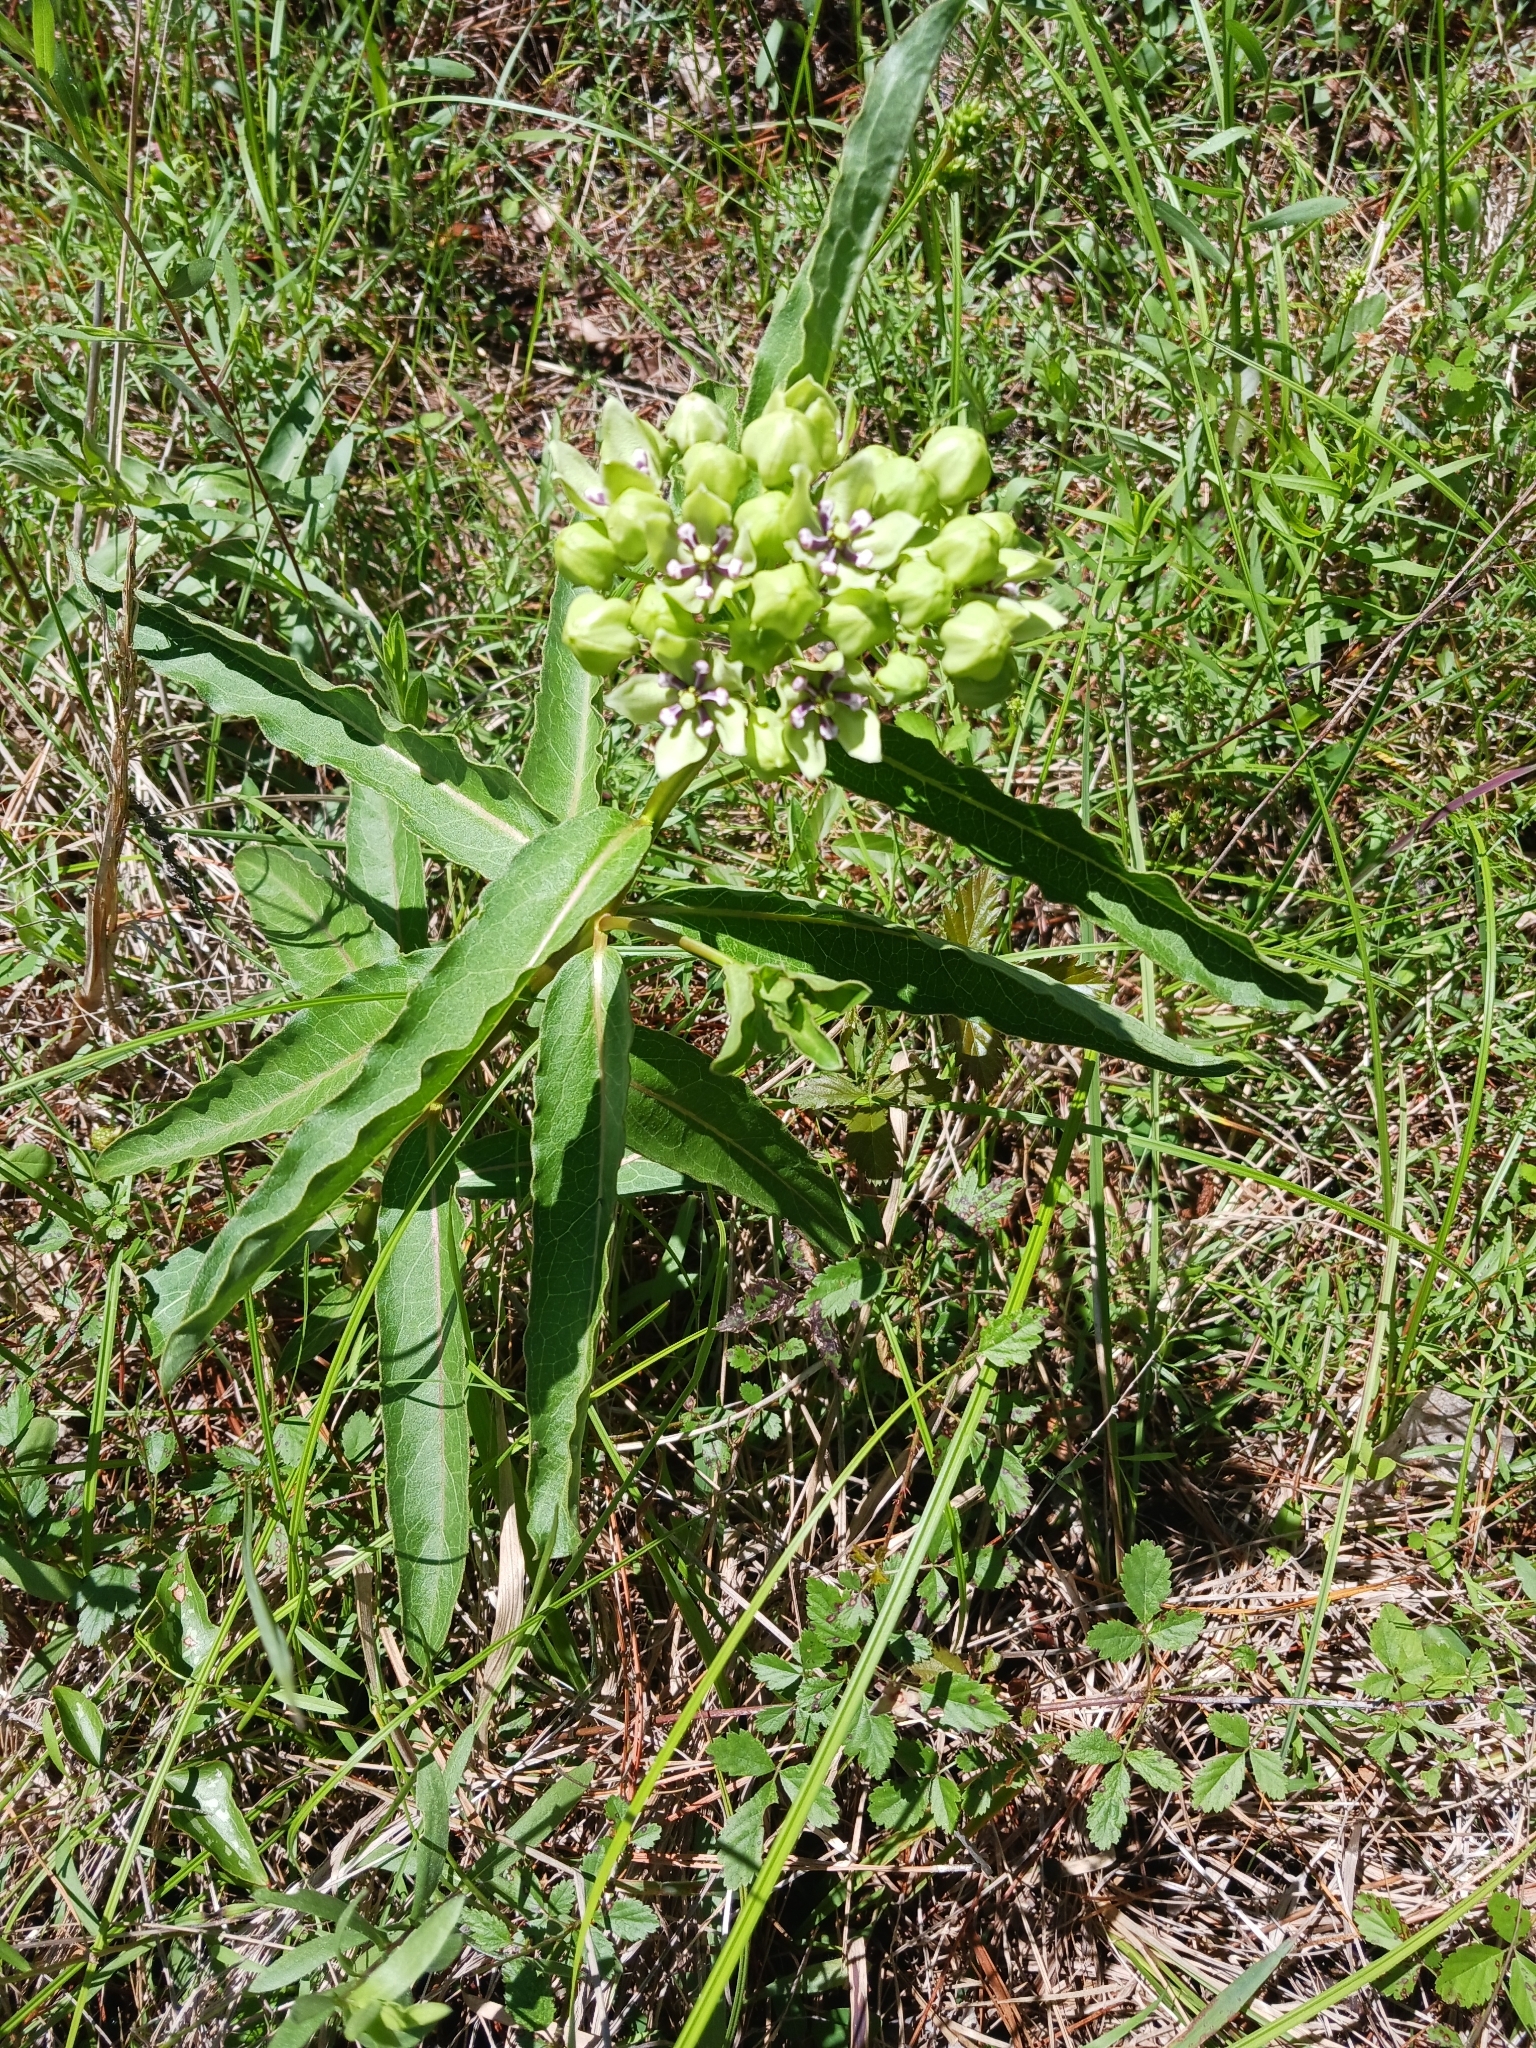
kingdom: Plantae
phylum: Tracheophyta
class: Magnoliopsida
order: Gentianales
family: Apocynaceae
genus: Asclepias
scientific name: Asclepias viridis
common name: Antelope-horns
